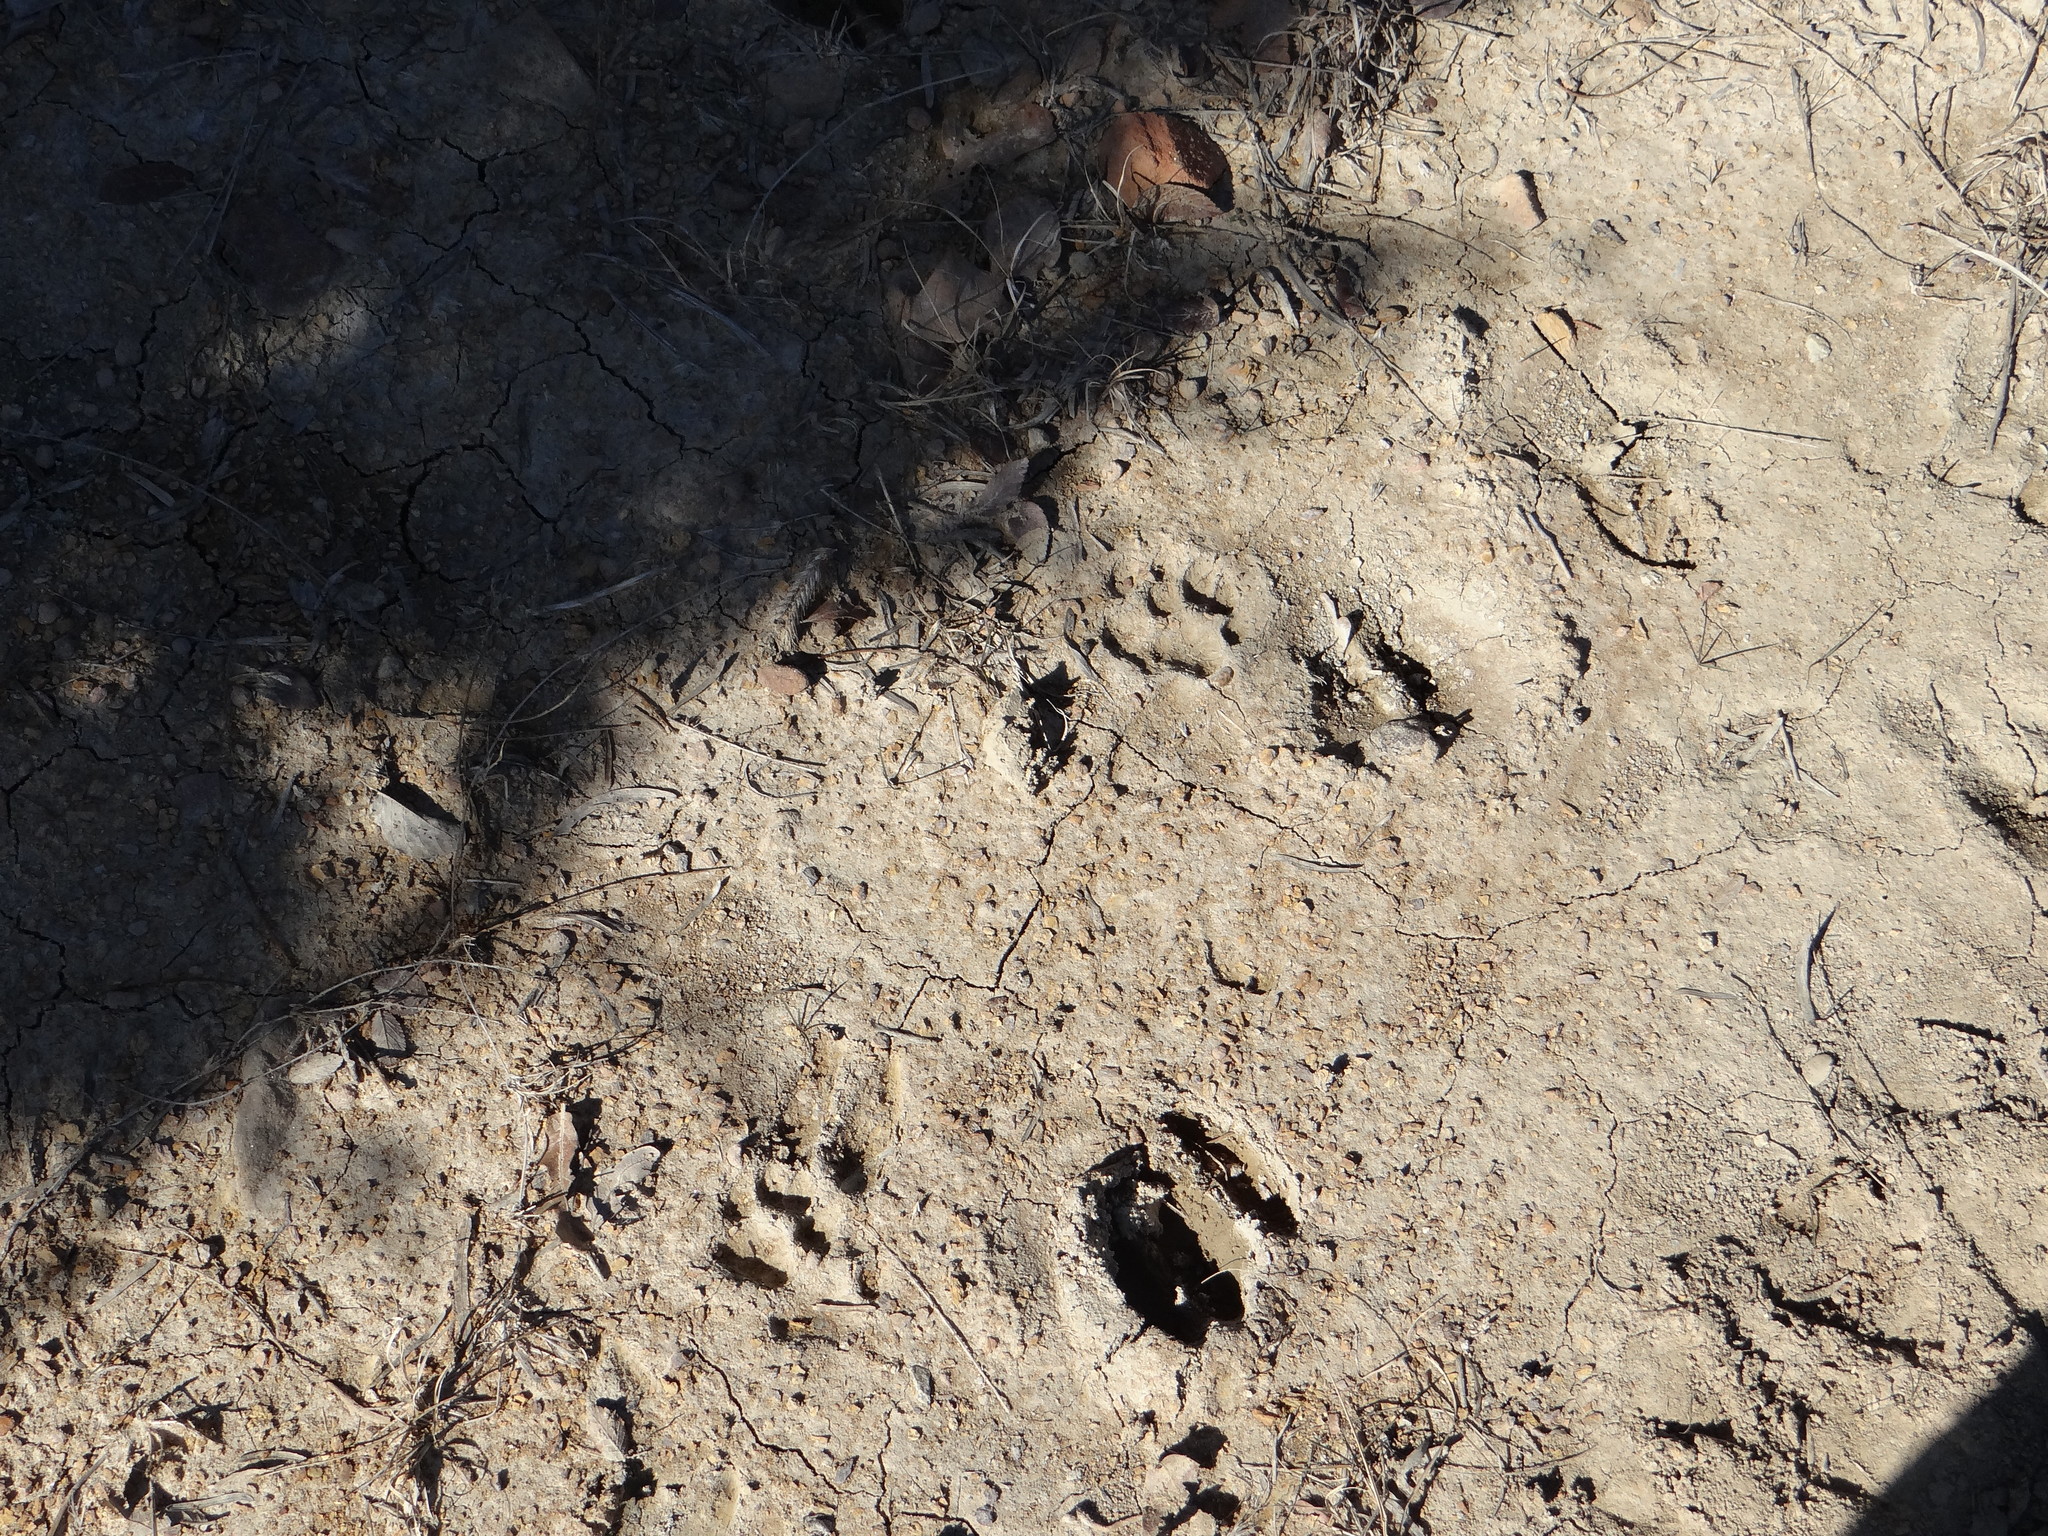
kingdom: Animalia
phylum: Chordata
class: Mammalia
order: Carnivora
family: Felidae
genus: Lynx
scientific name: Lynx rufus
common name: Bobcat
